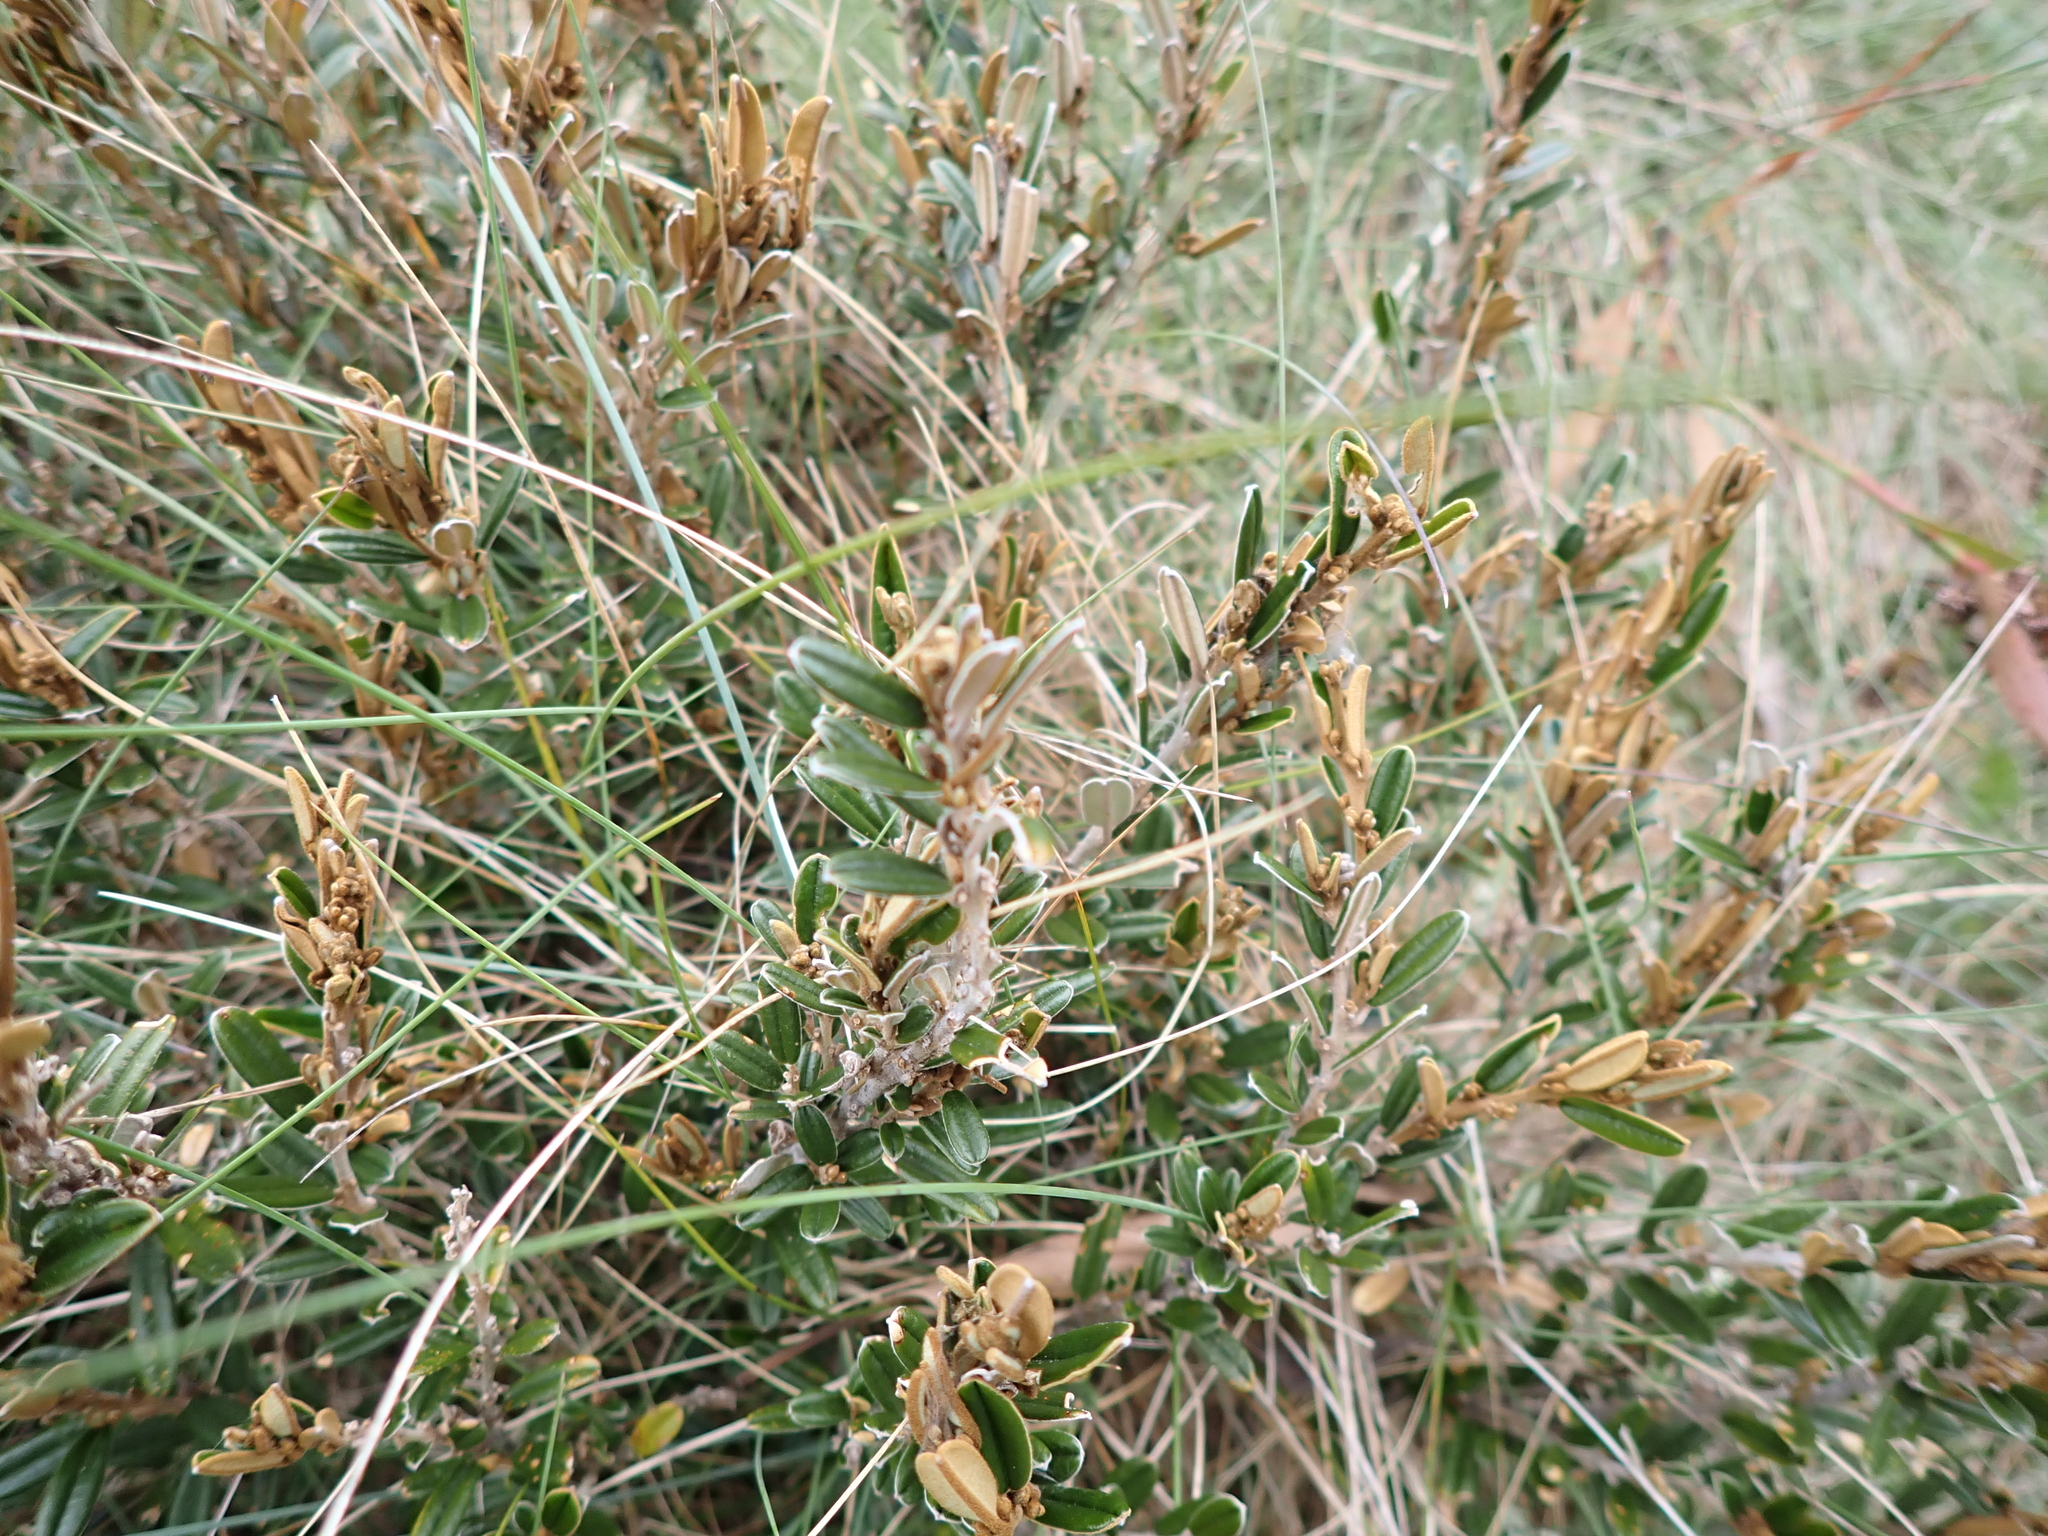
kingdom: Plantae
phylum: Tracheophyta
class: Magnoliopsida
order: Fabales
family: Fabaceae
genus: Hovea
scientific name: Hovea montana
